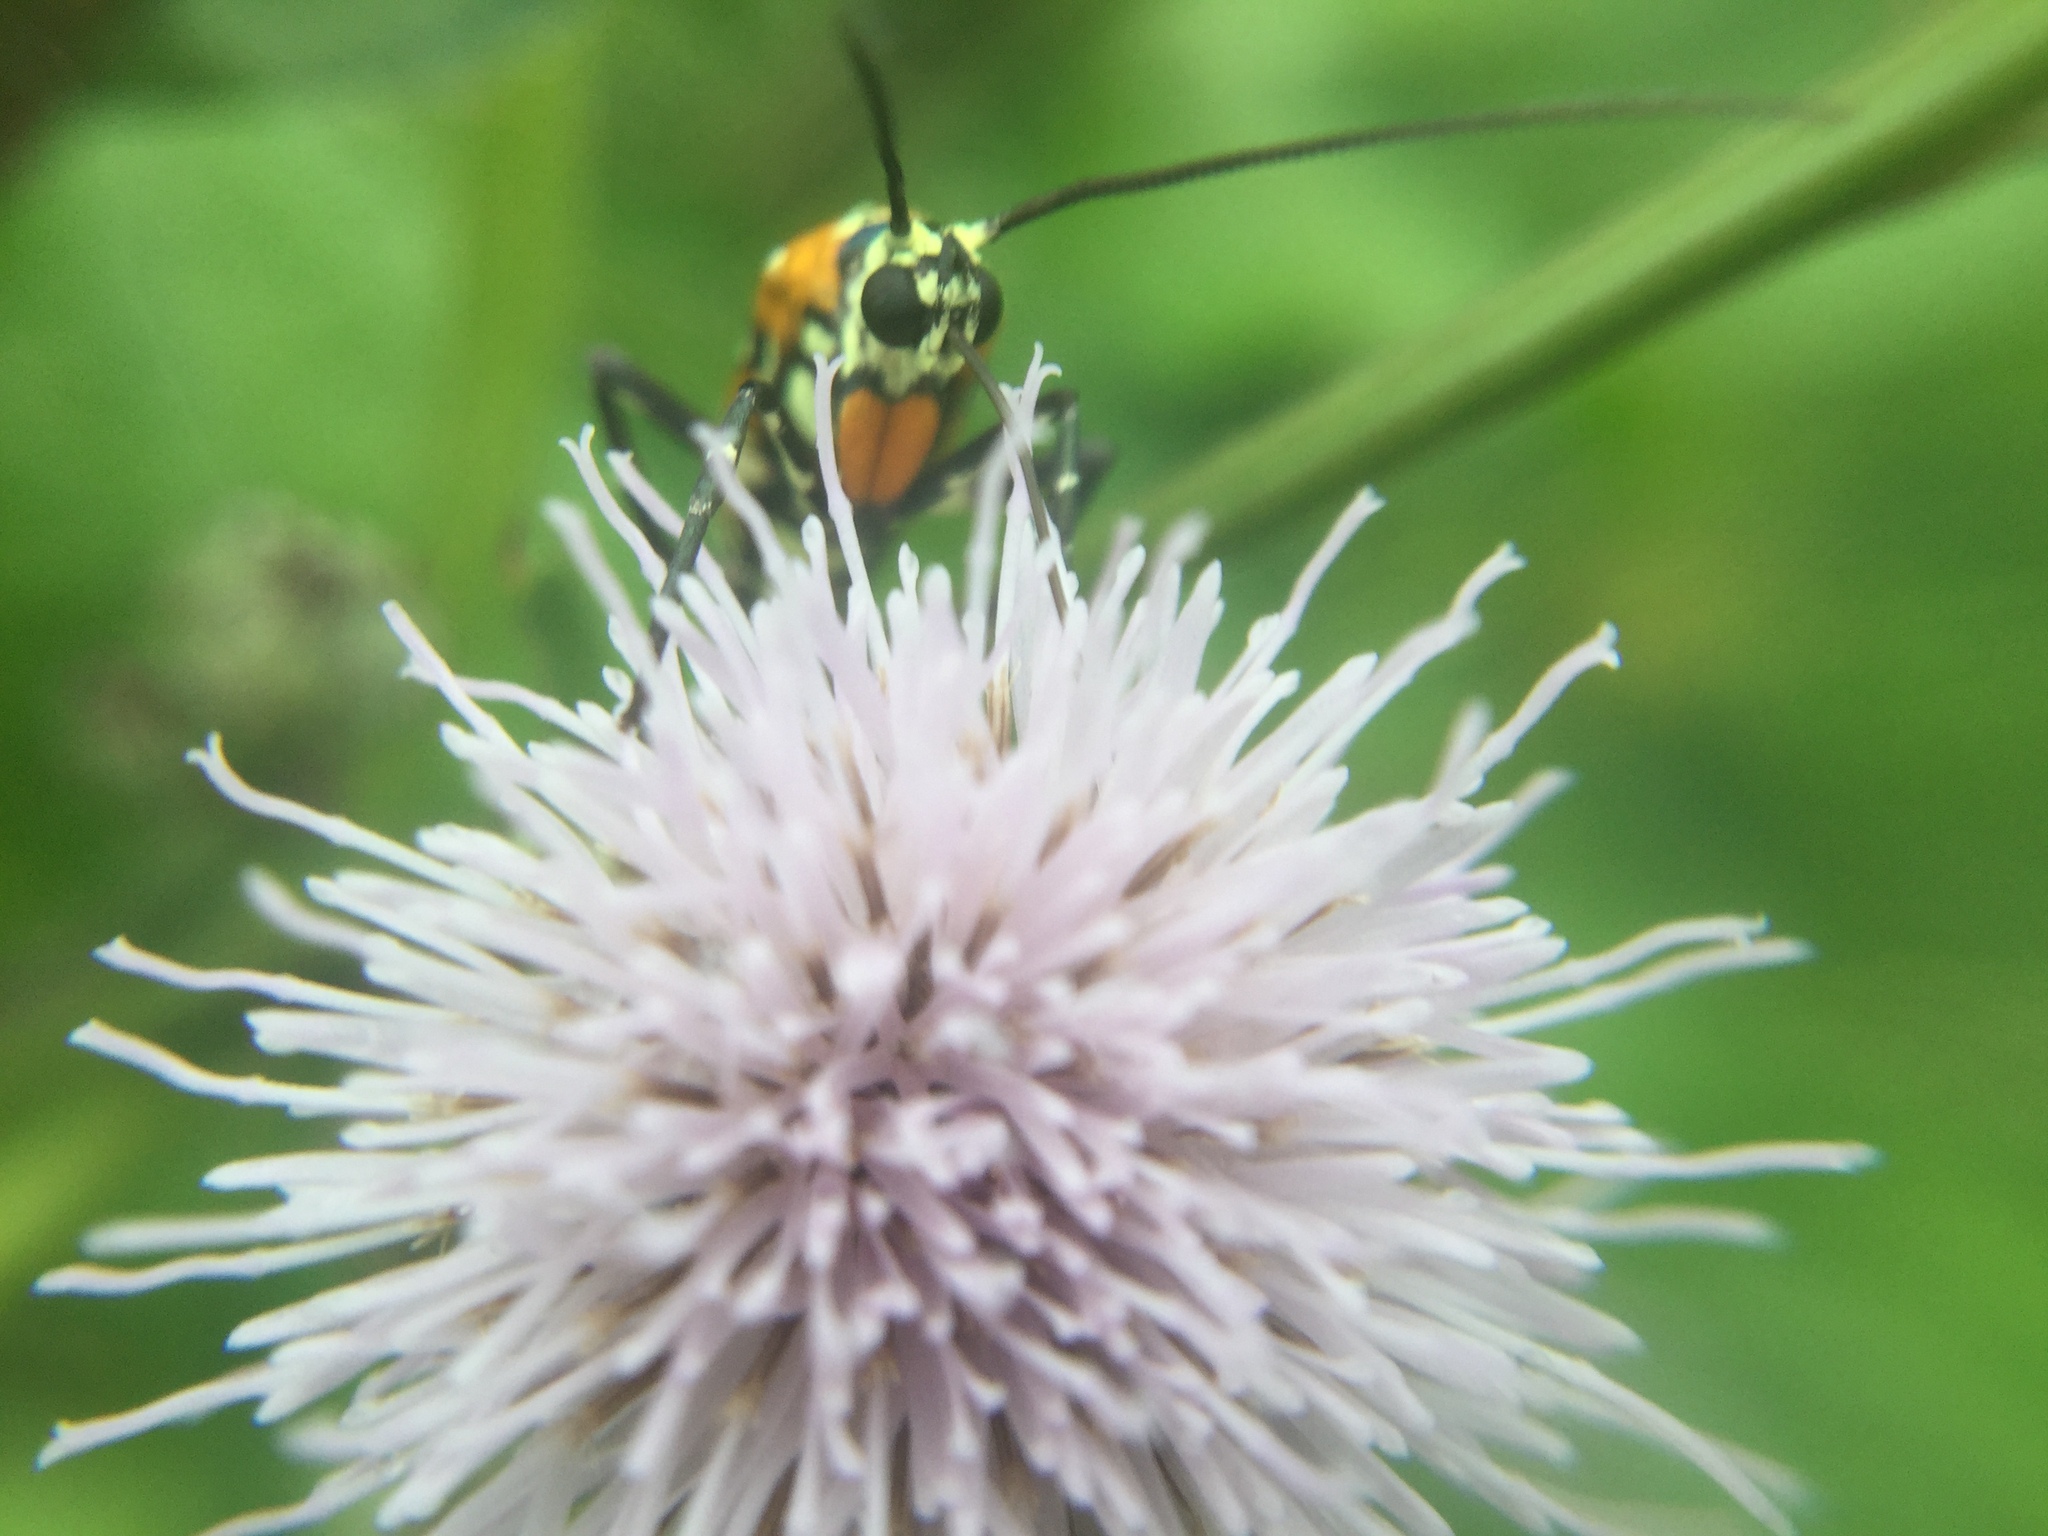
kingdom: Animalia
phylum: Arthropoda
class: Insecta
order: Lepidoptera
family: Attevidae
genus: Atteva
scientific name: Atteva punctella
